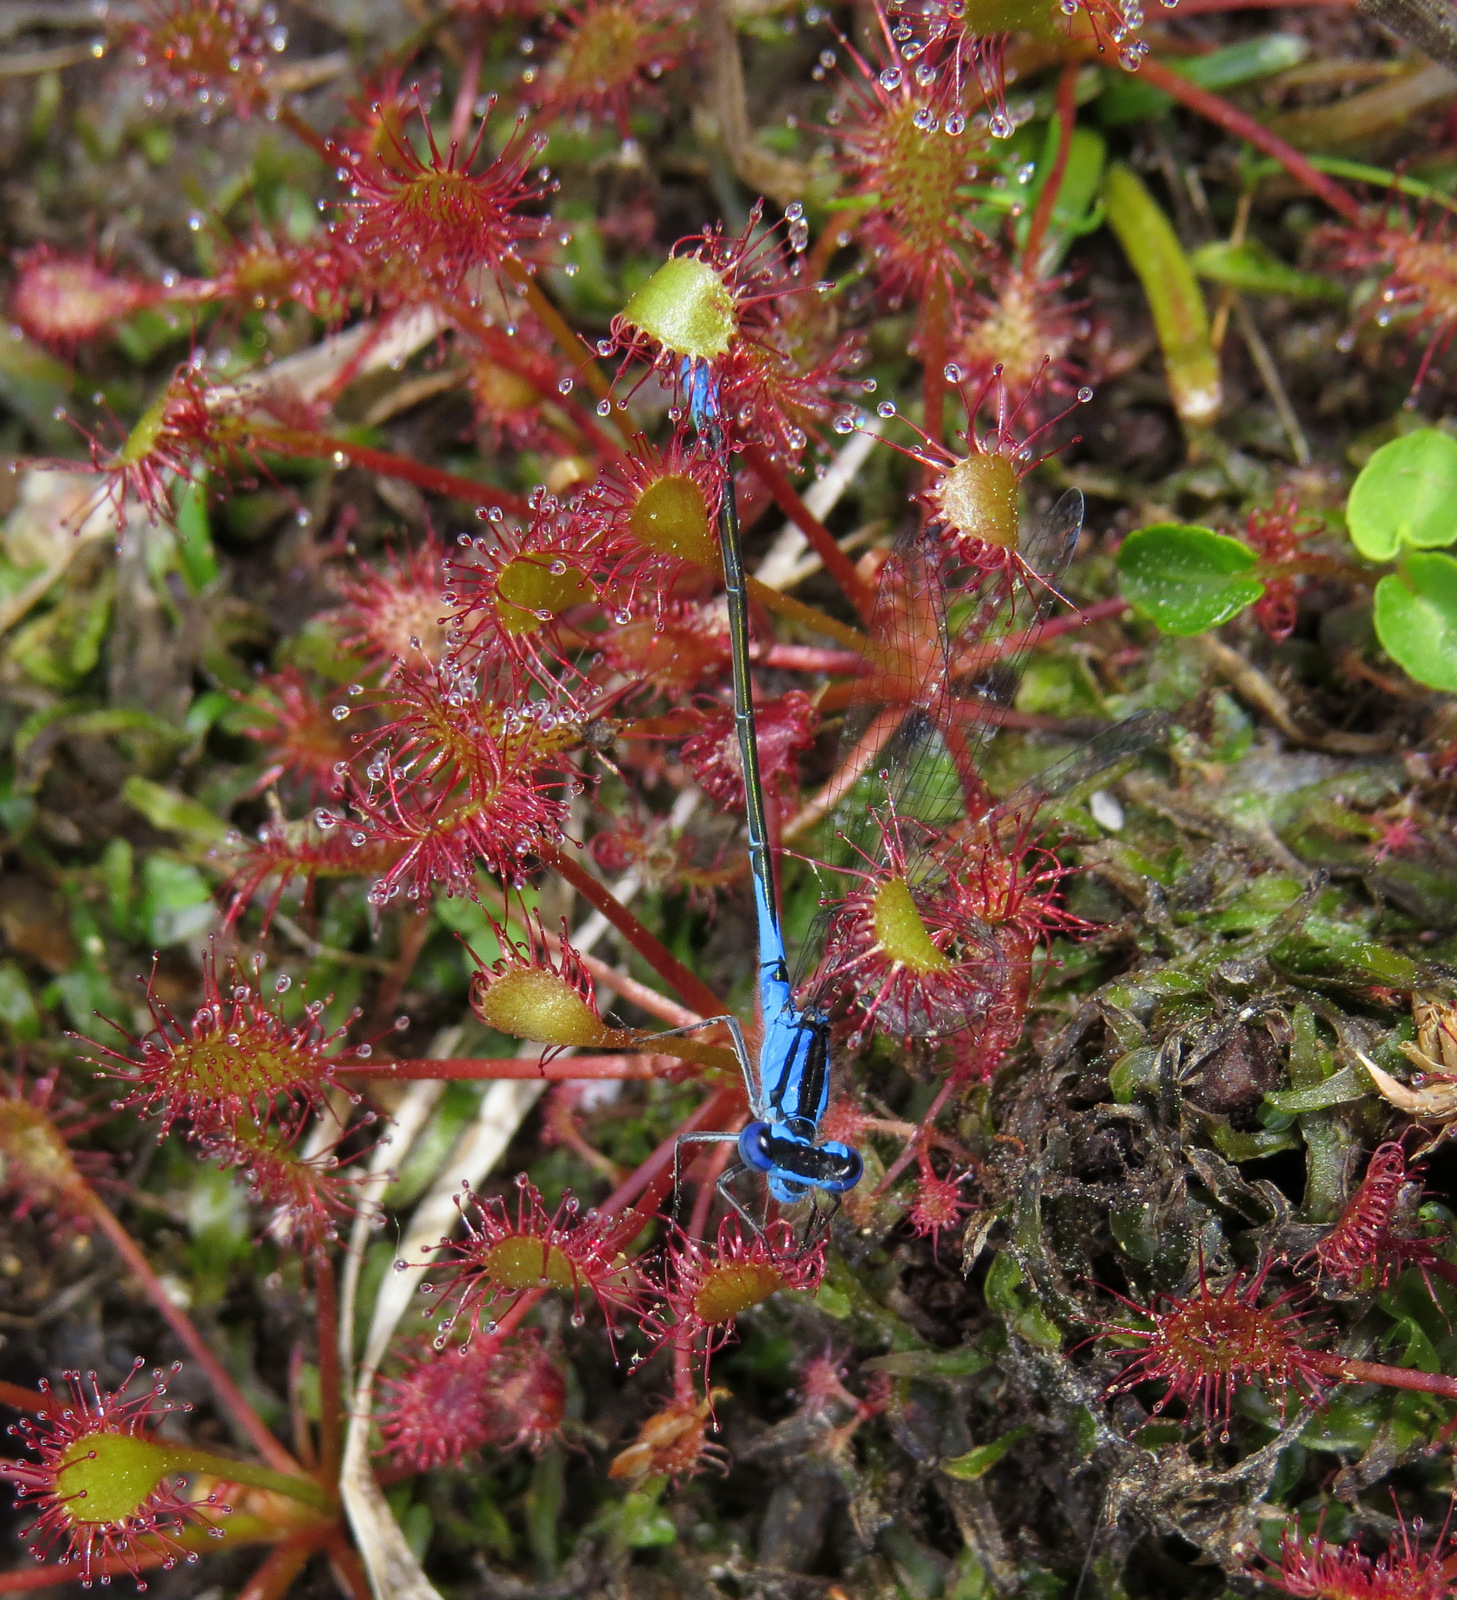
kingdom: Plantae
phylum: Tracheophyta
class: Magnoliopsida
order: Caryophyllales
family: Droseraceae
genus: Drosera
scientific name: Drosera intermedia
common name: Oblong-leaved sundew
